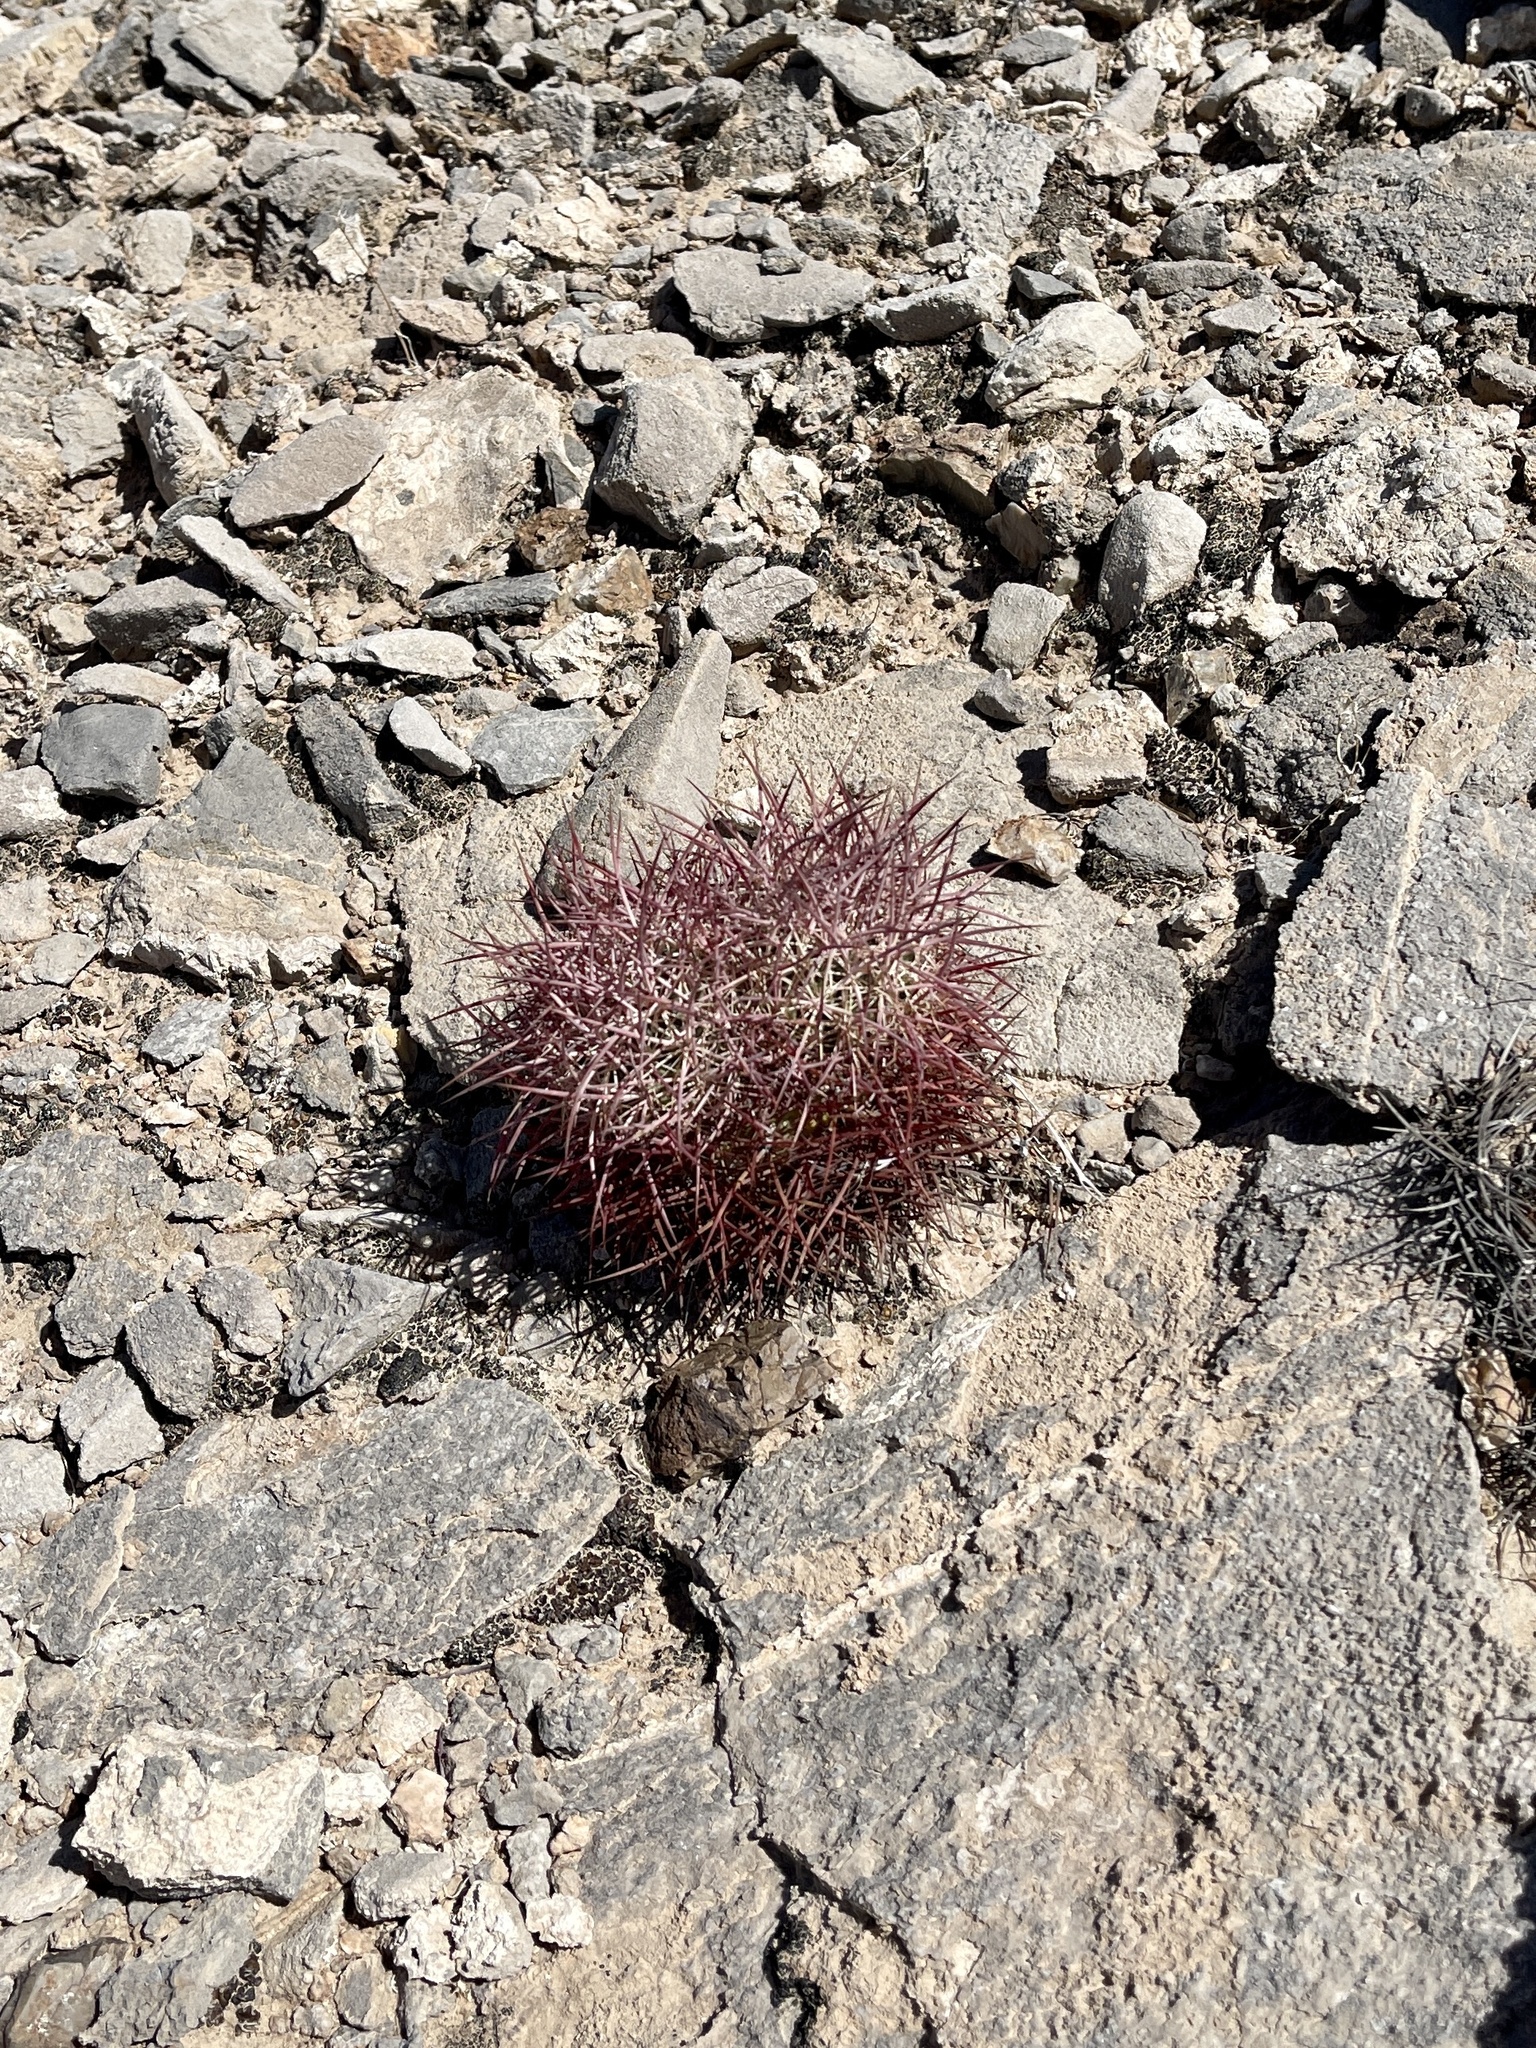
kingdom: Plantae
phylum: Tracheophyta
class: Magnoliopsida
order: Caryophyllales
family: Cactaceae
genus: Sclerocactus
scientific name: Sclerocactus johnsonii
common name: Eight-spine fishhook cactus
